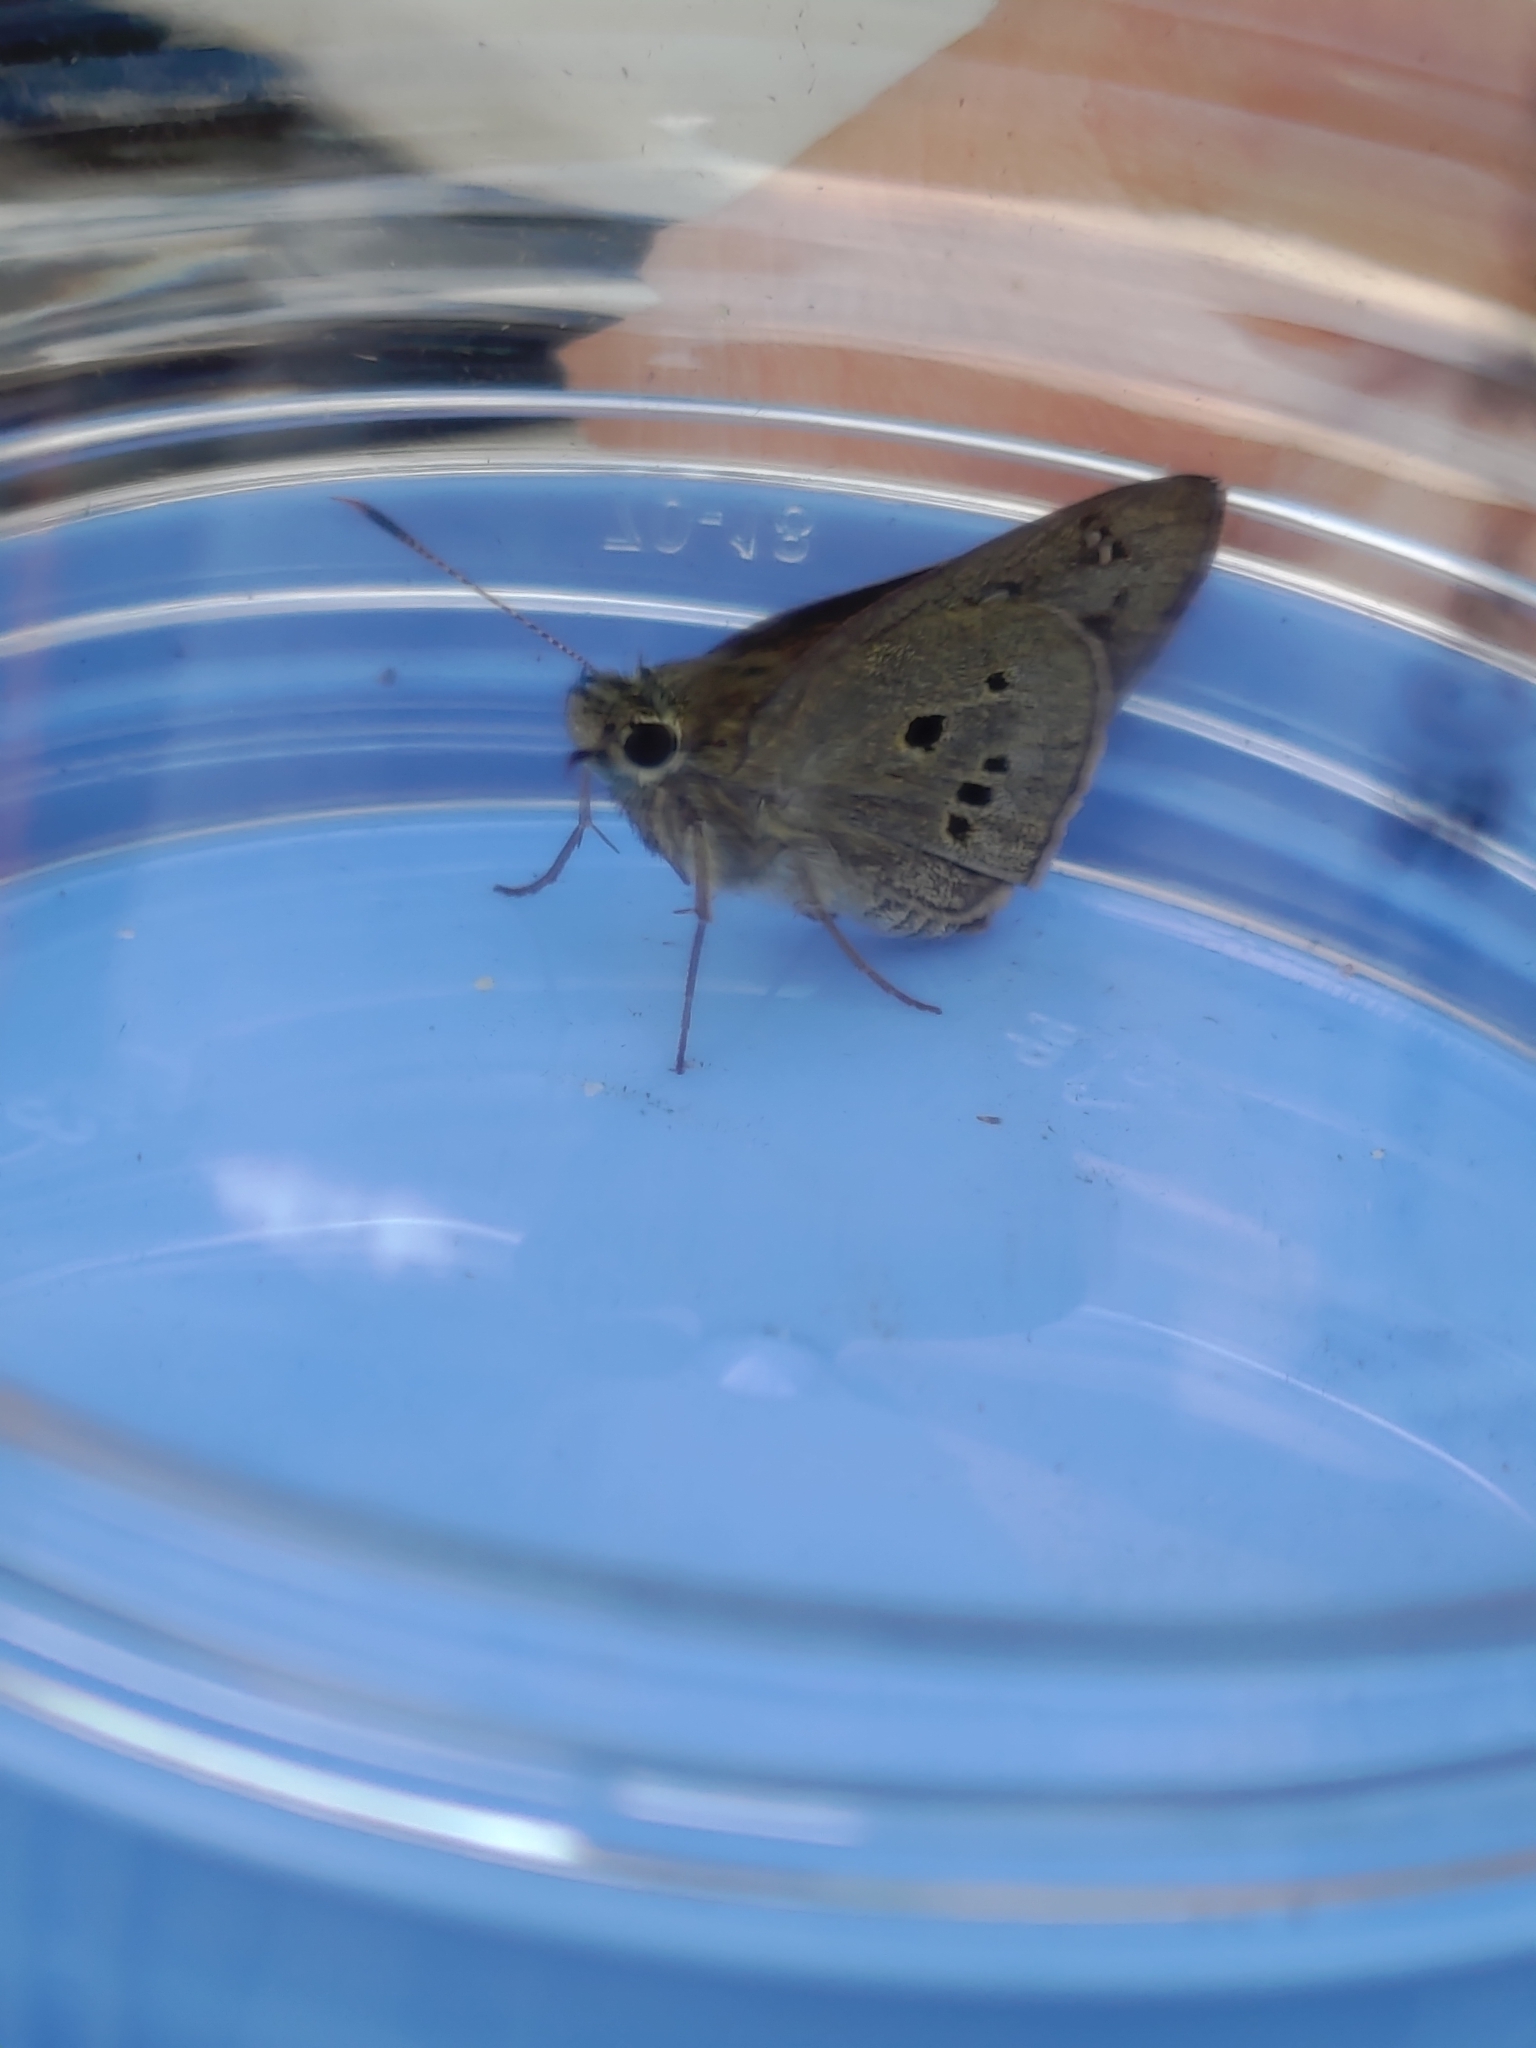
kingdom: Animalia
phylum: Arthropoda
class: Insecta
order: Lepidoptera
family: Hesperiidae
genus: Suastus
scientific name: Suastus gremius
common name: Indian palm bob
